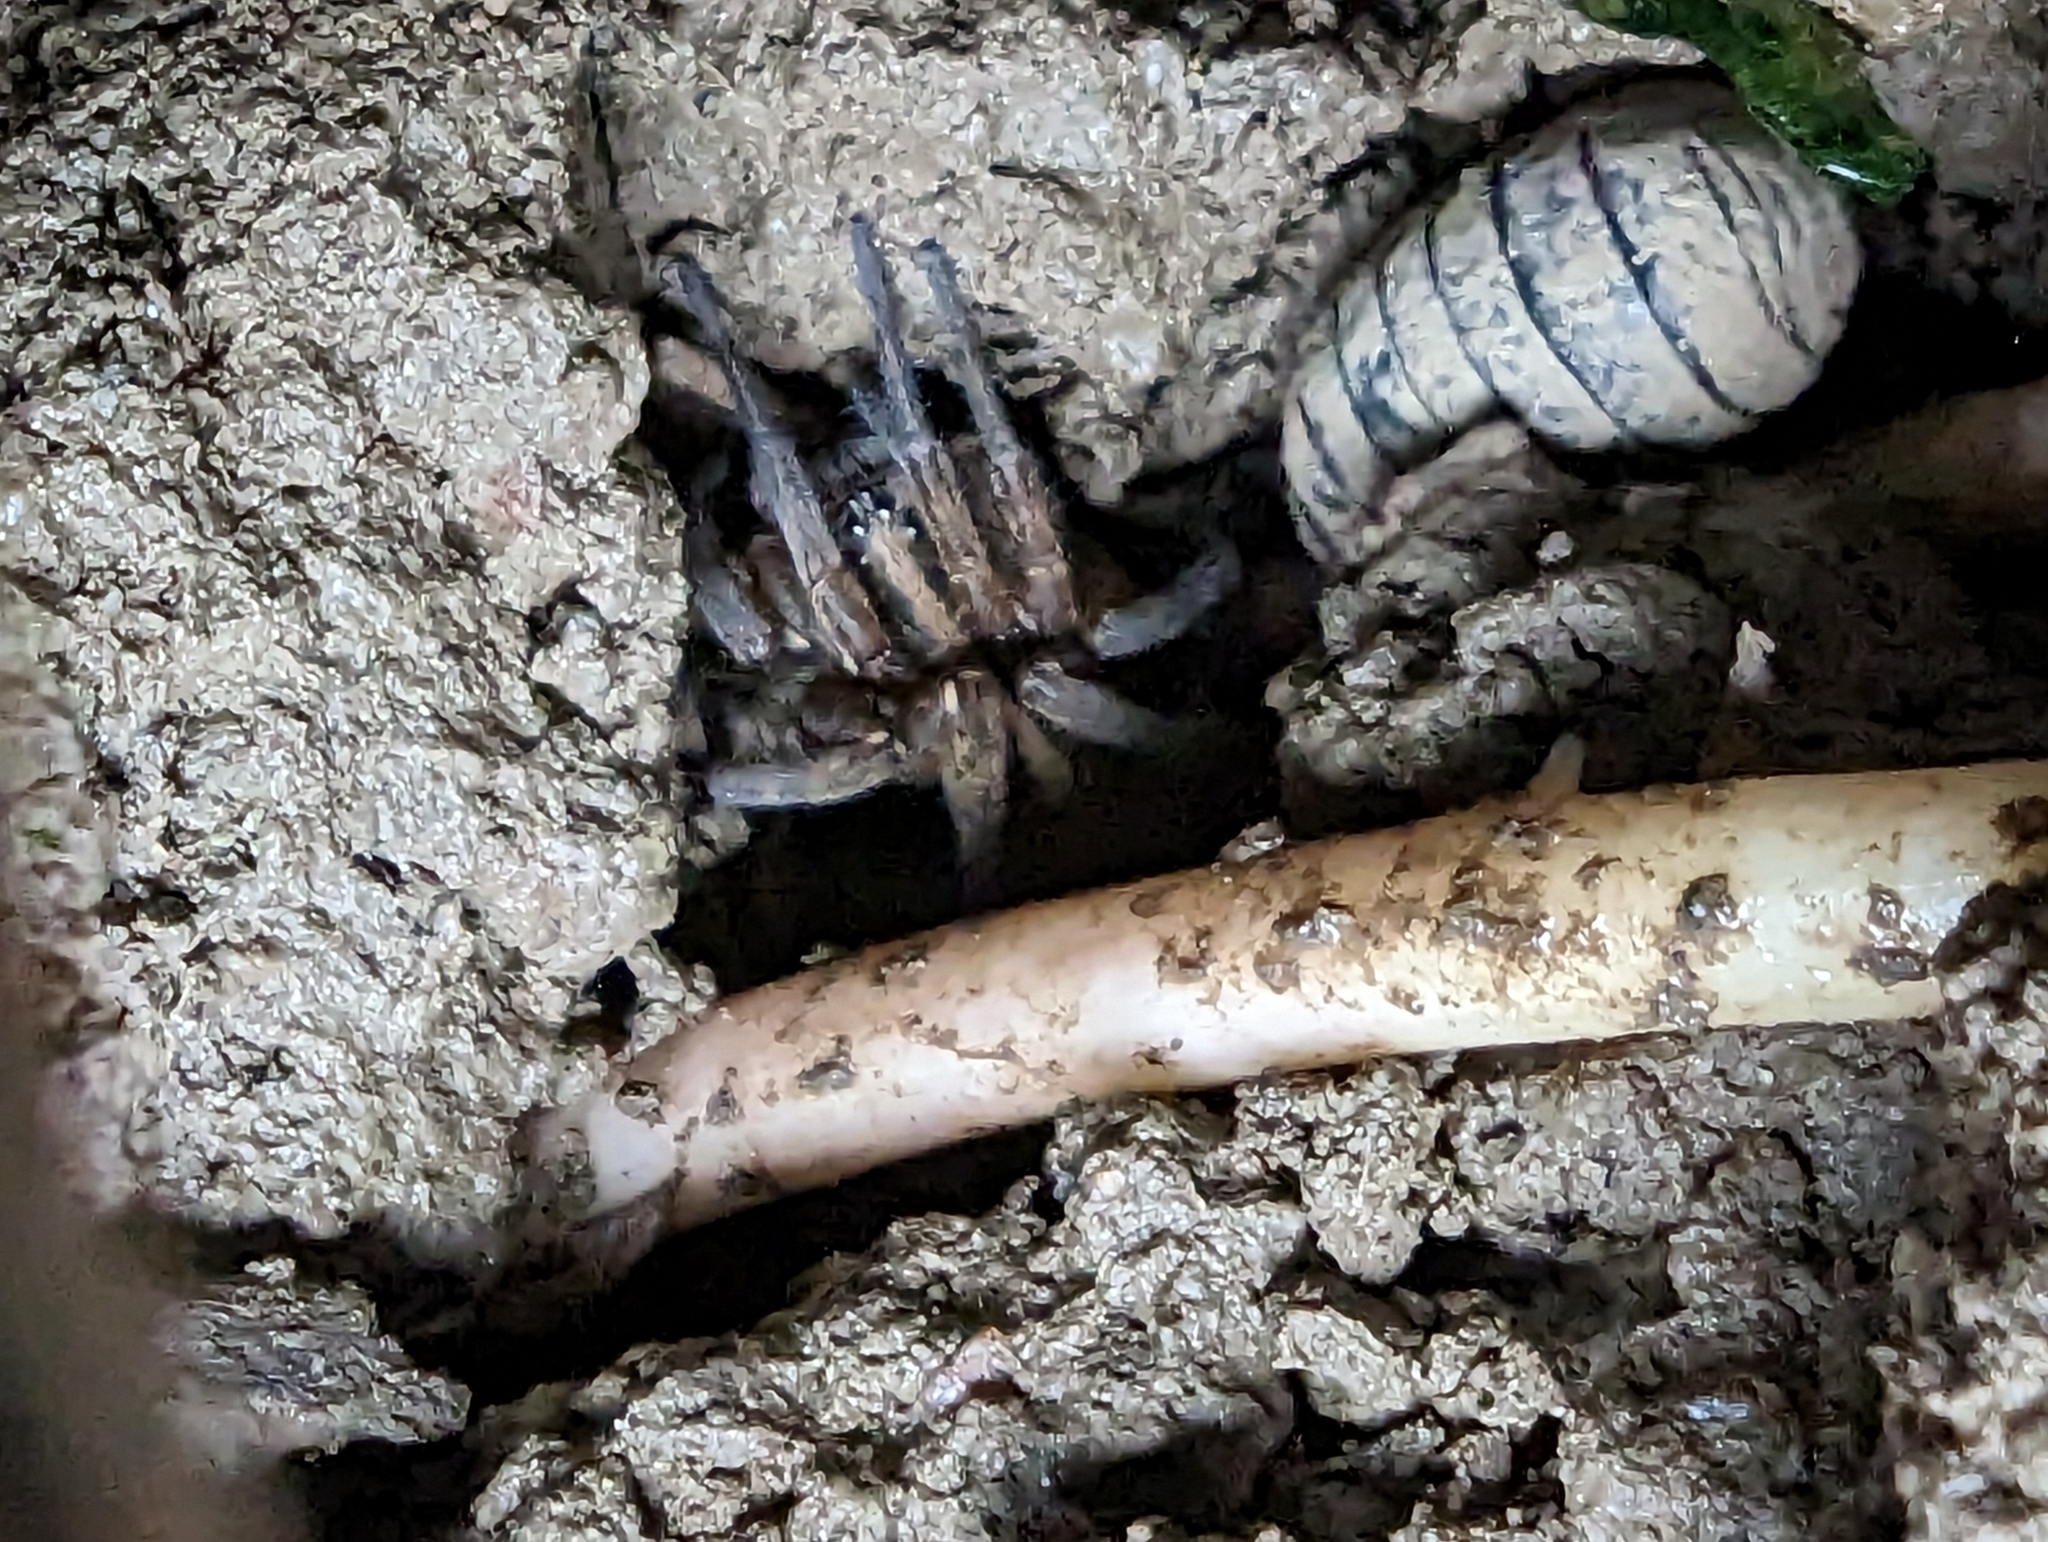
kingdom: Animalia
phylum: Arthropoda
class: Malacostraca
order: Isopoda
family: Armadillidiidae
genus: Armadillidium
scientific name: Armadillidium vulgare
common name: Common pill woodlouse
